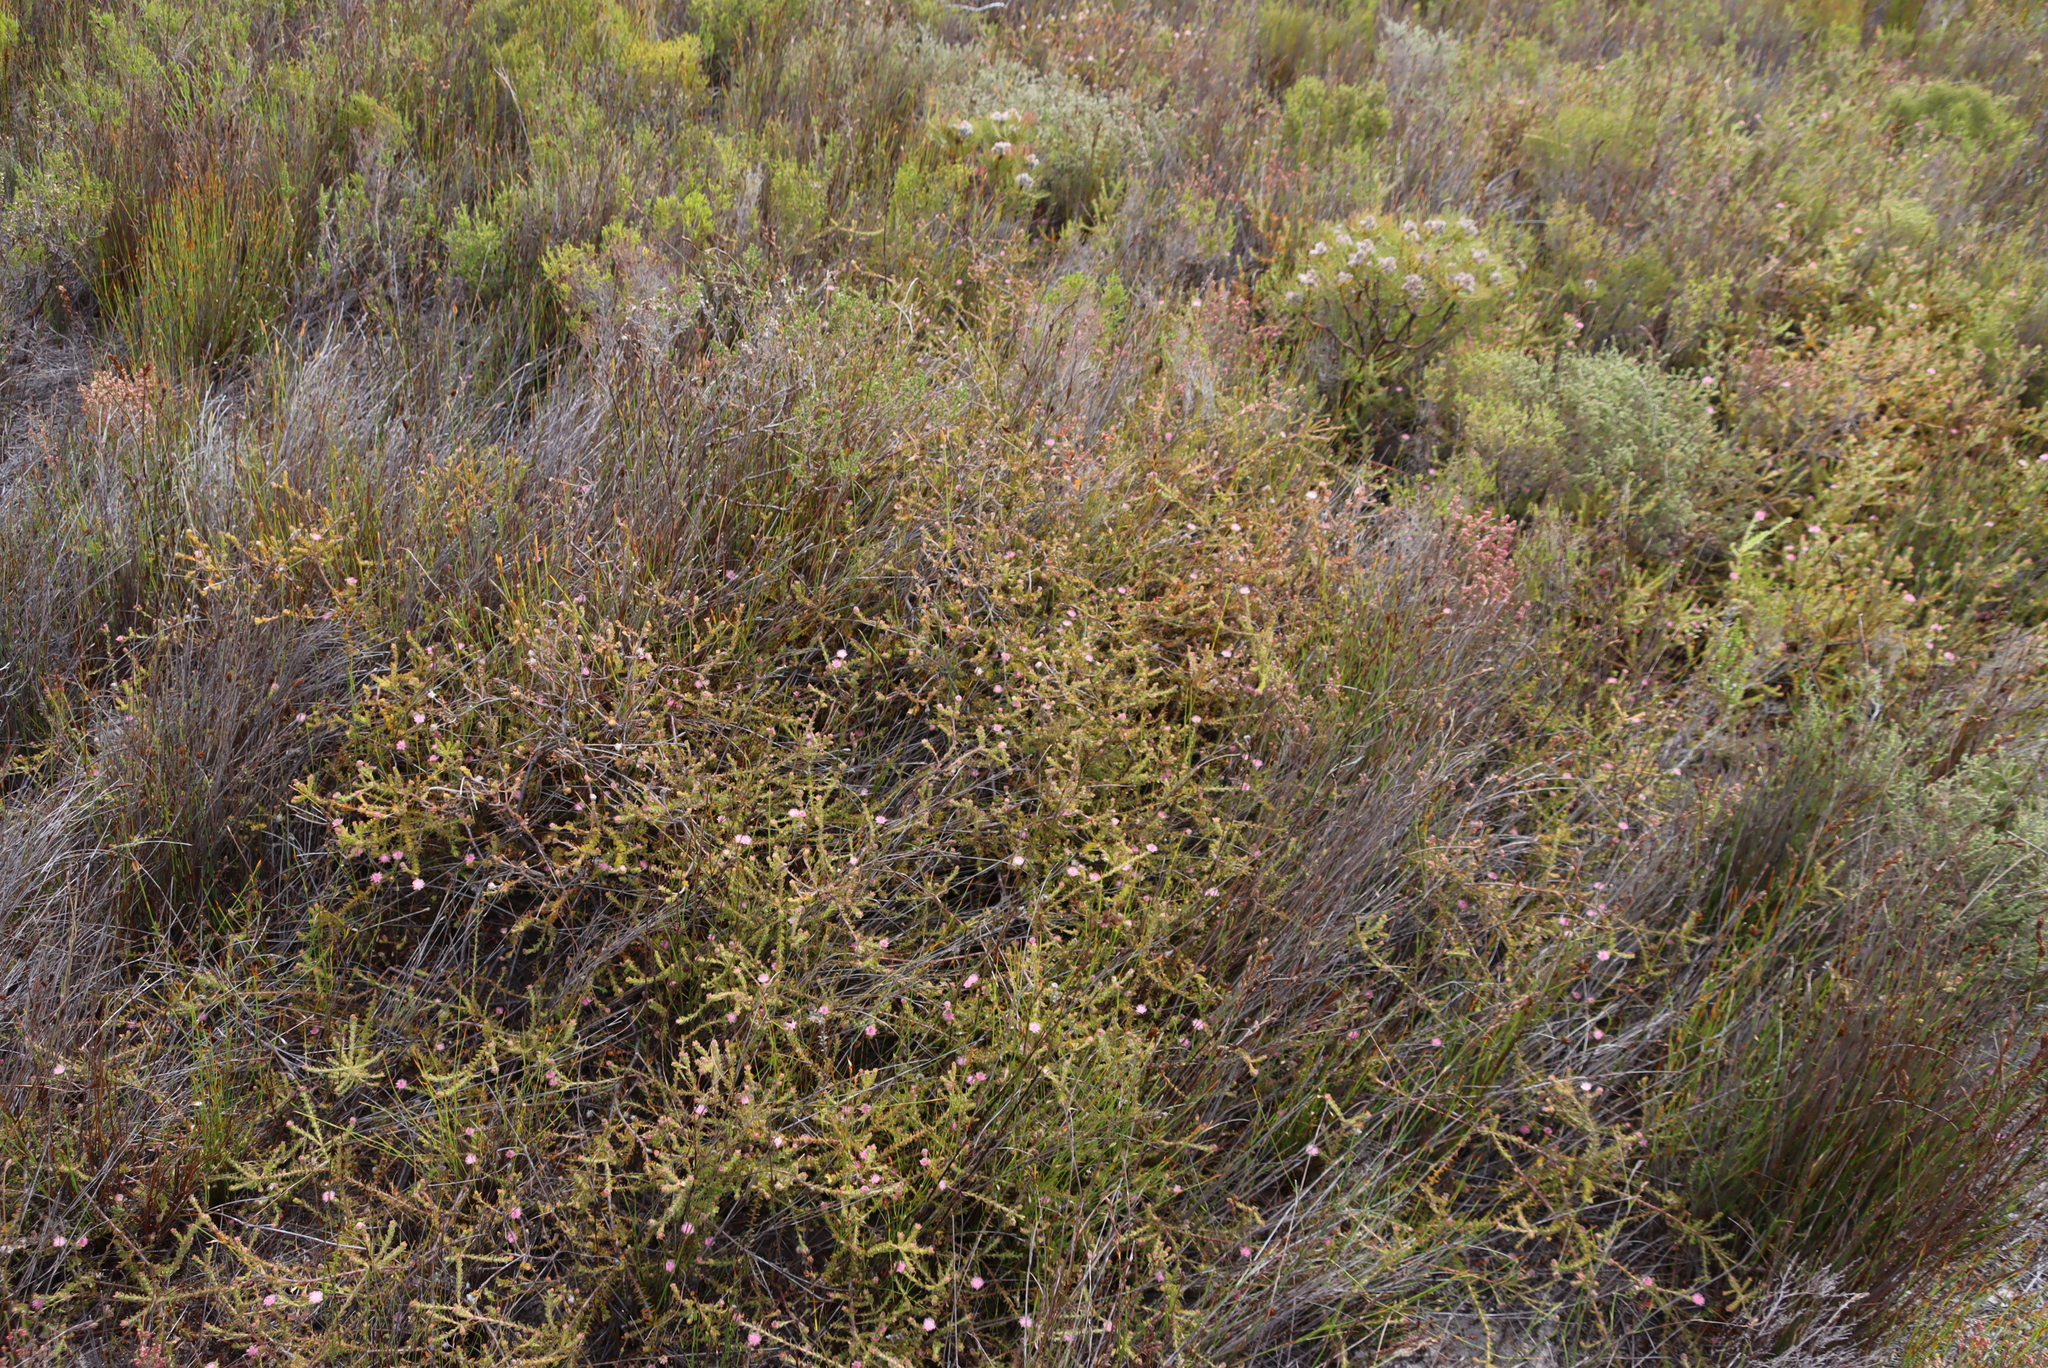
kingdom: Plantae
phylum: Tracheophyta
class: Magnoliopsida
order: Proteales
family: Proteaceae
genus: Diastella
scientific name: Diastella divaricata
